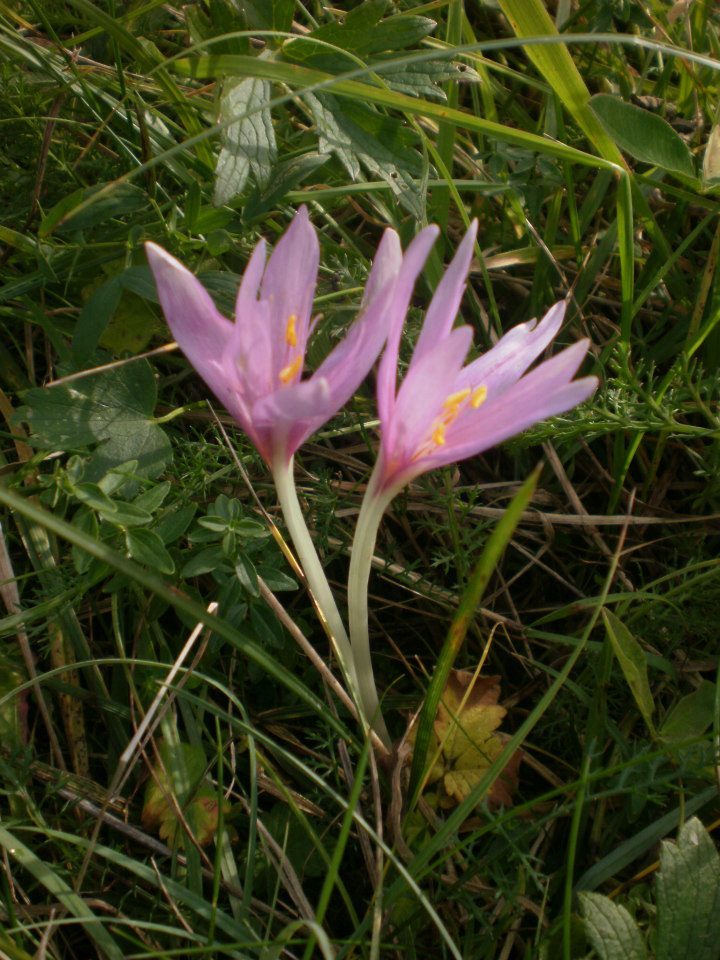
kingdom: Plantae
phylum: Tracheophyta
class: Liliopsida
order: Liliales
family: Colchicaceae
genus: Colchicum
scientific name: Colchicum autumnale
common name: Autumn crocus
